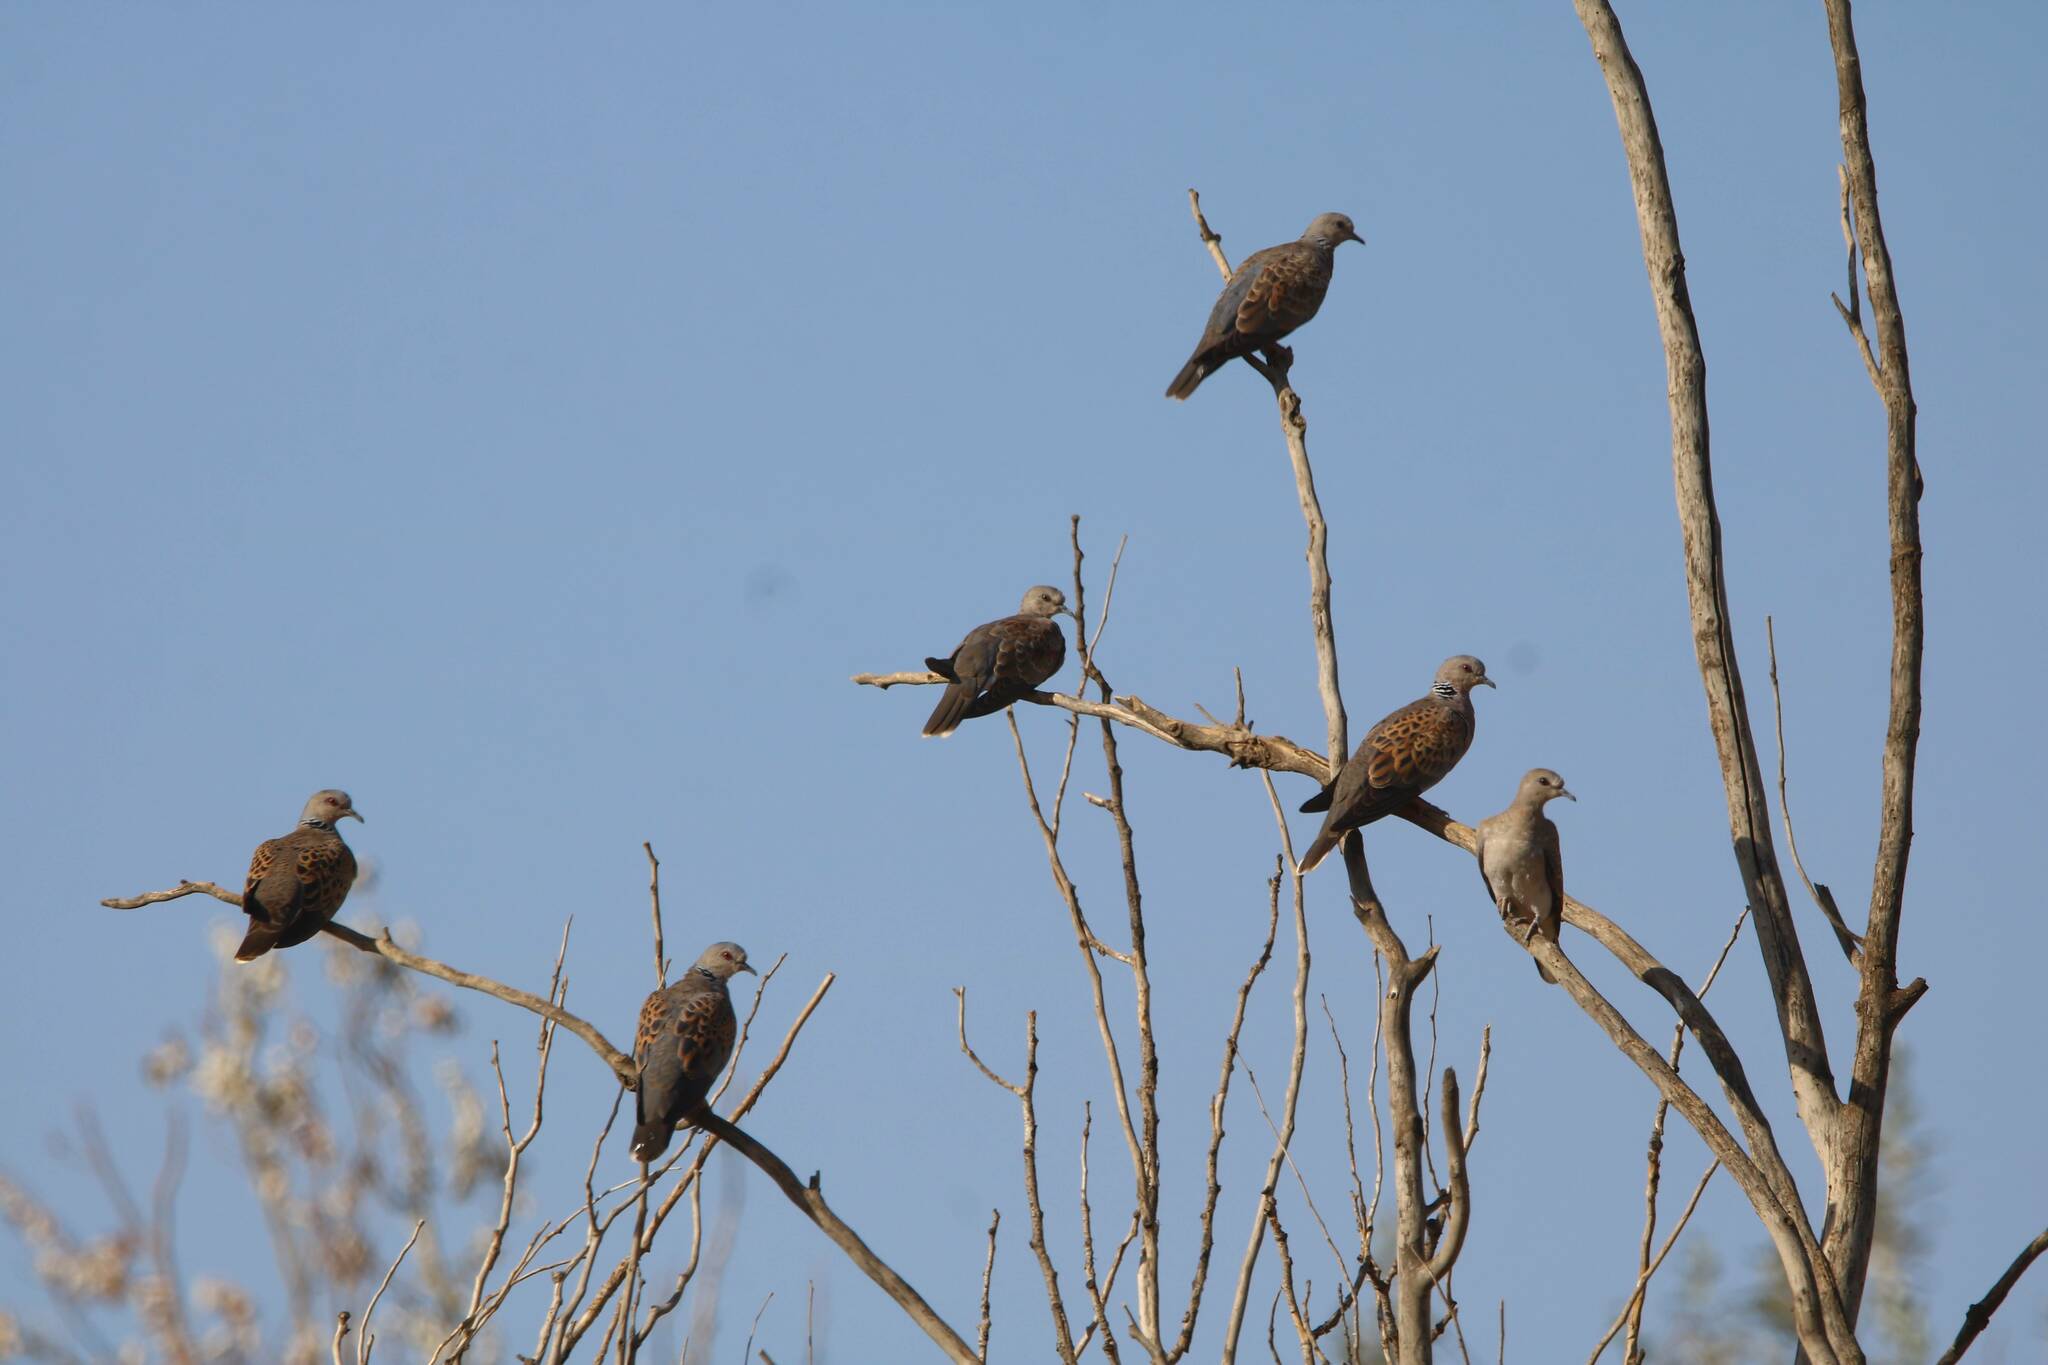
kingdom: Animalia
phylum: Chordata
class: Aves
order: Columbiformes
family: Columbidae
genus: Streptopelia
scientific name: Streptopelia turtur
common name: European turtle dove
